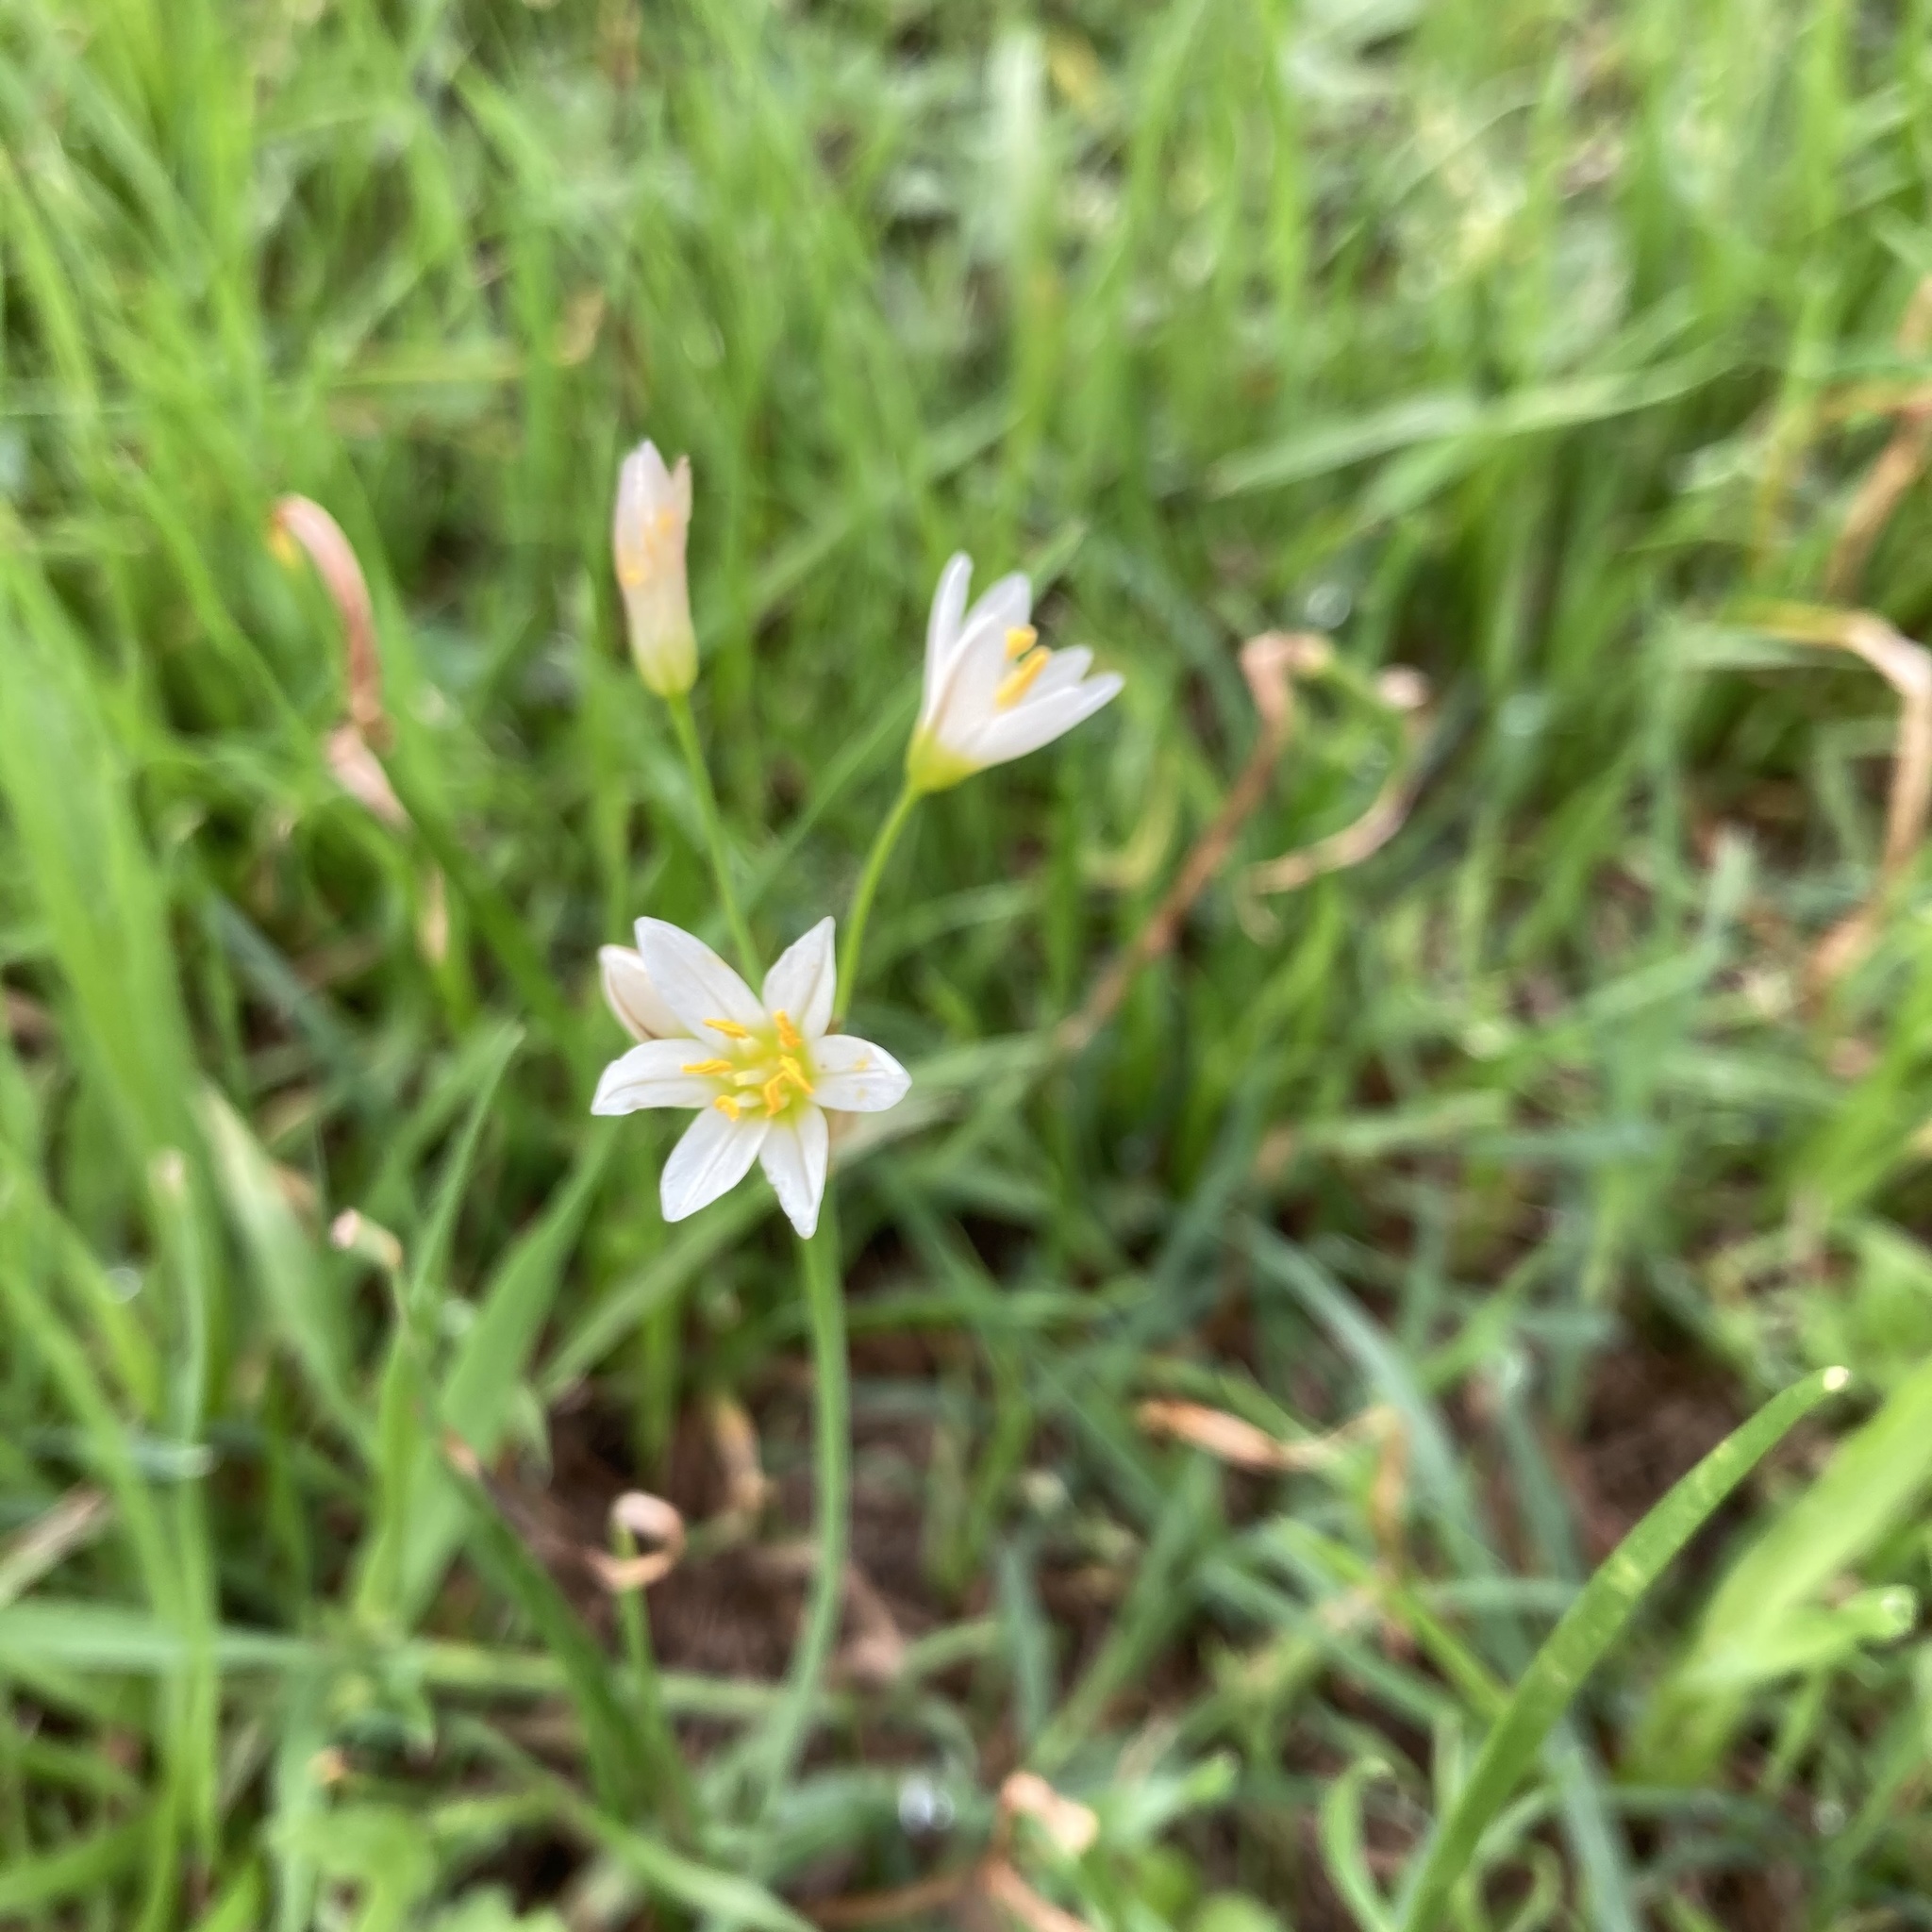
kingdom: Plantae
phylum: Tracheophyta
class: Liliopsida
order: Asparagales
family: Amaryllidaceae
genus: Nothoscordum
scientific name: Nothoscordum bivalve
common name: Crow-poison
